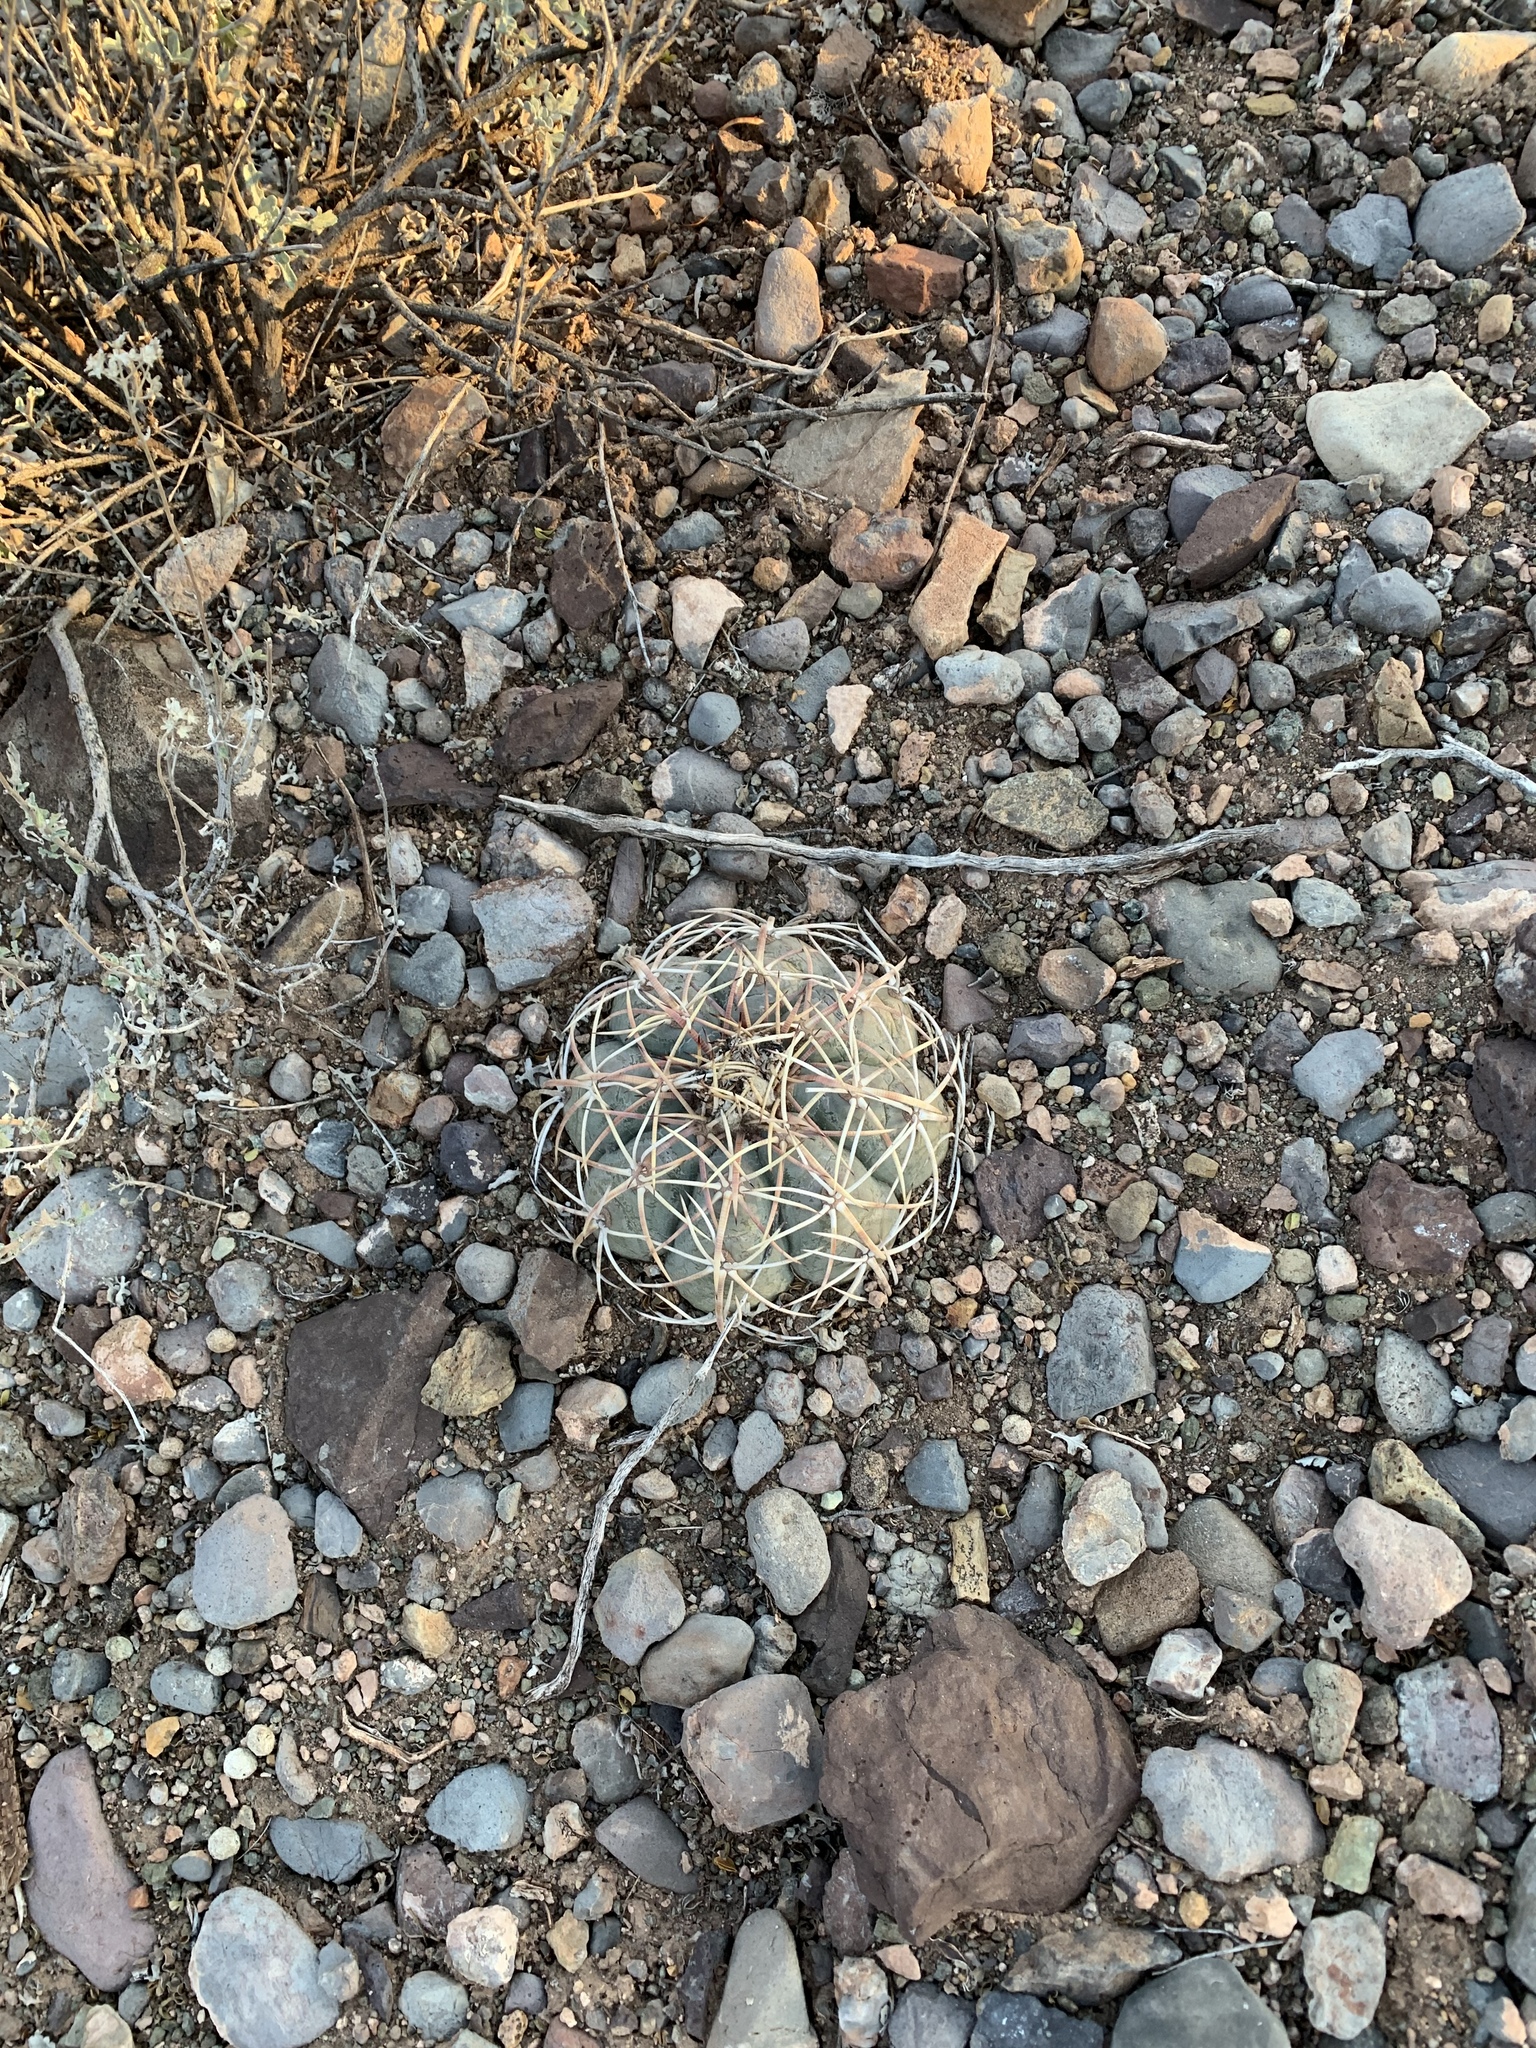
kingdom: Plantae
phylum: Tracheophyta
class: Magnoliopsida
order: Caryophyllales
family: Cactaceae
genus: Echinocactus
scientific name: Echinocactus horizonthalonius
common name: Devilshead
